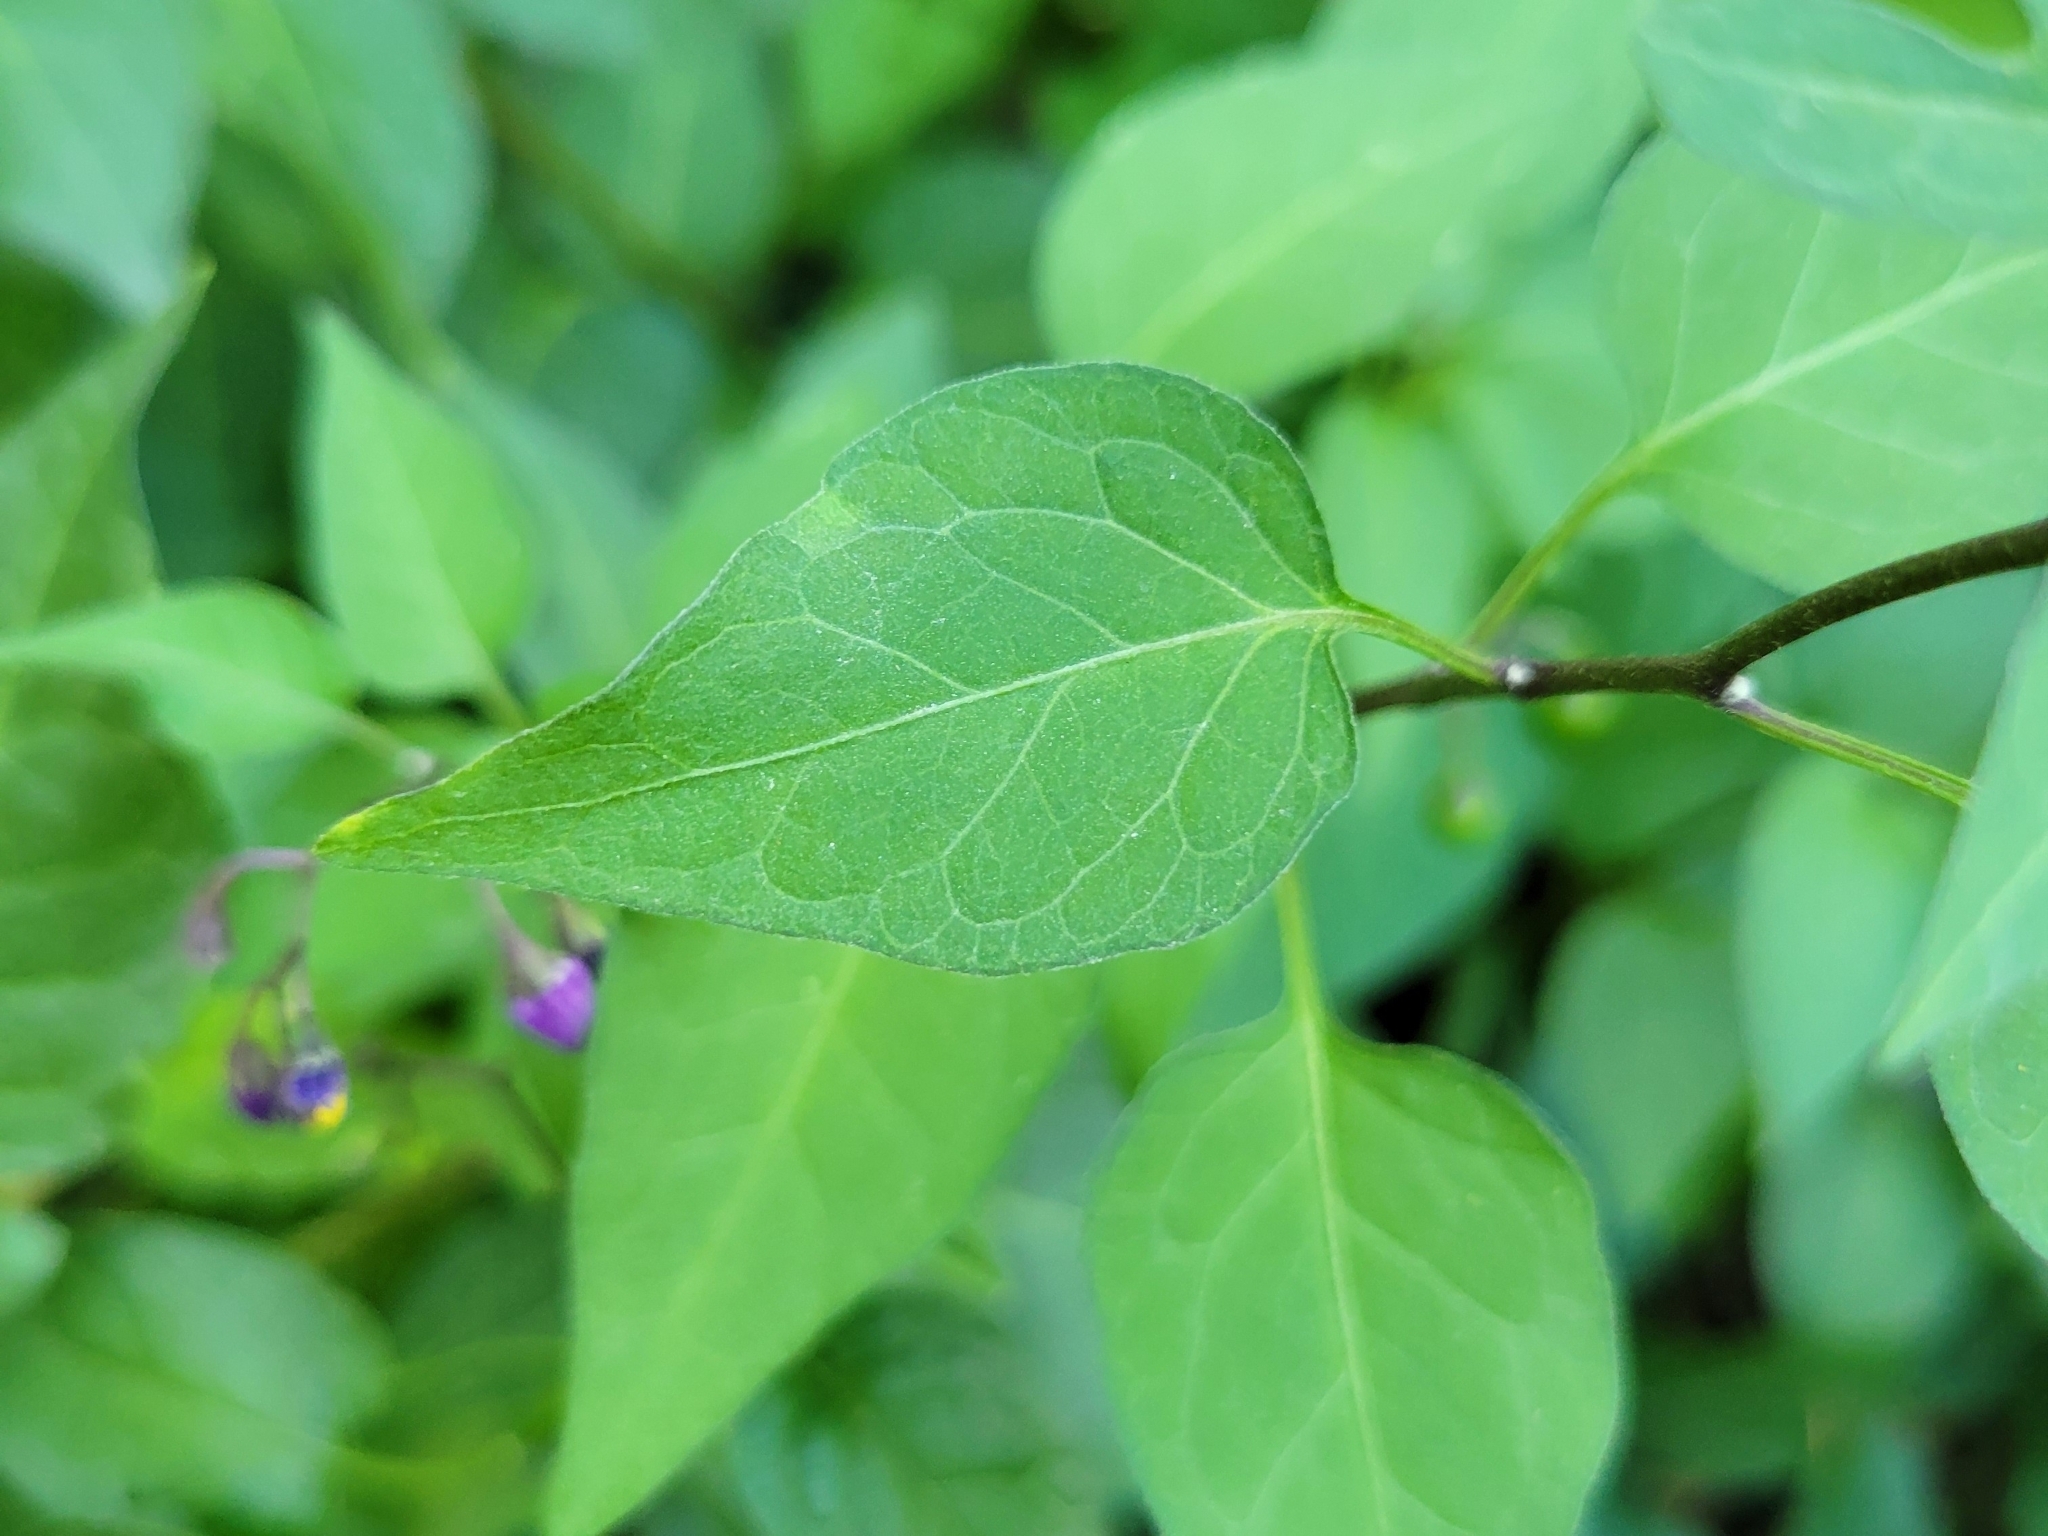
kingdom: Plantae
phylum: Tracheophyta
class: Magnoliopsida
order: Solanales
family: Solanaceae
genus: Solanum
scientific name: Solanum dulcamara
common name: Climbing nightshade
